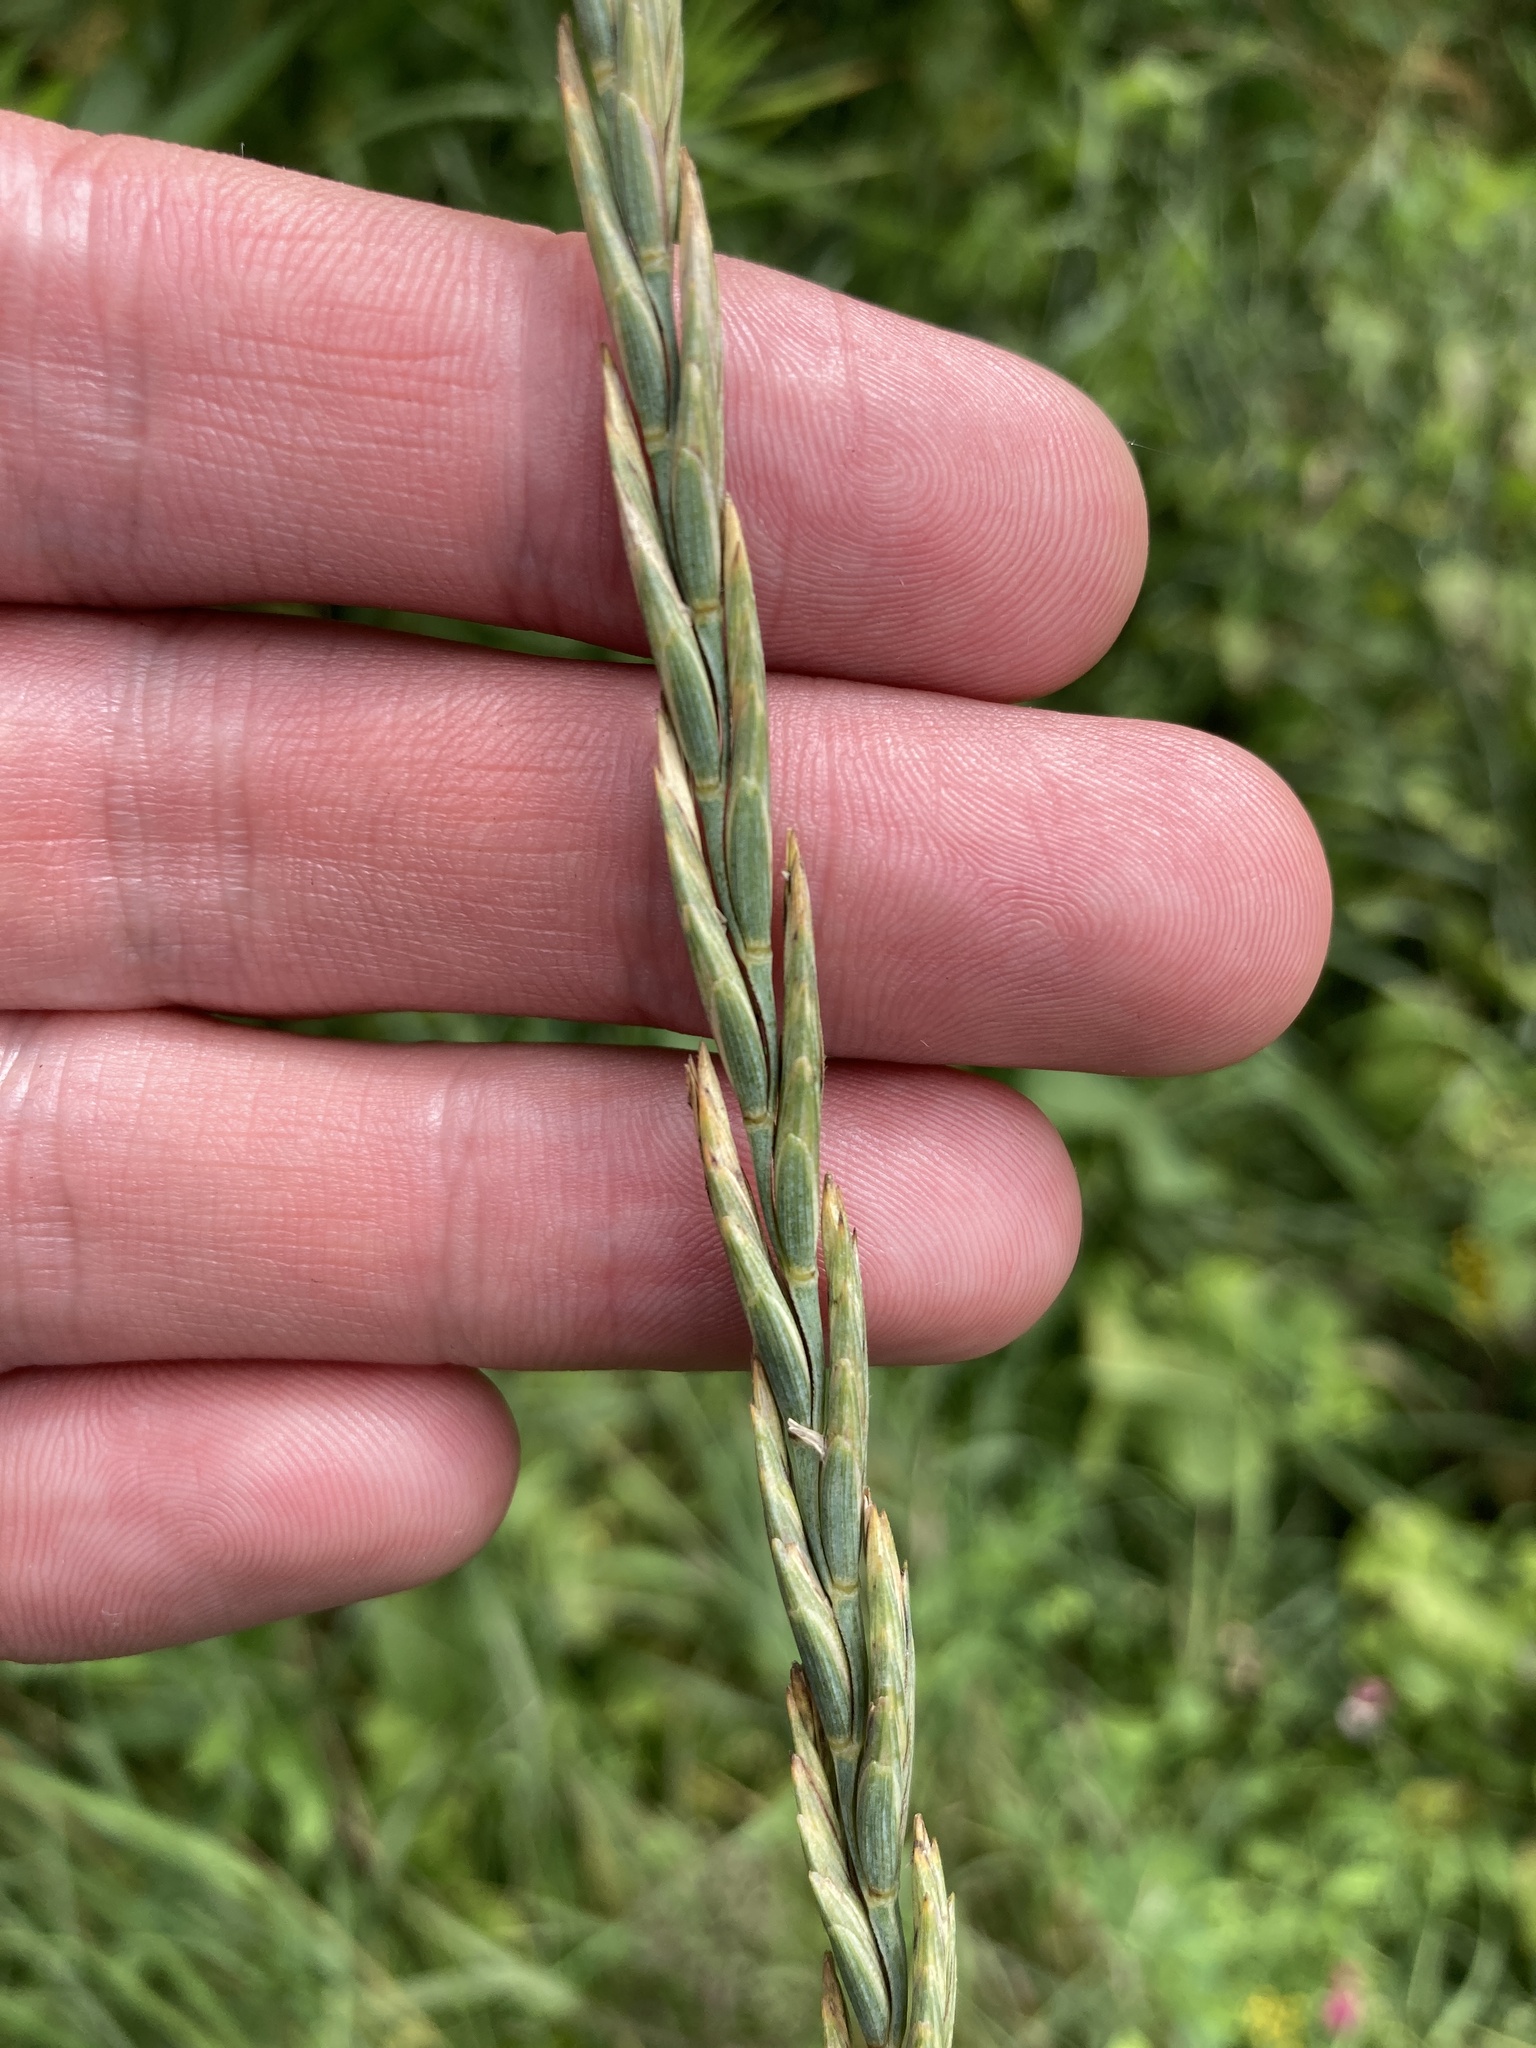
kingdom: Plantae
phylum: Tracheophyta
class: Liliopsida
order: Poales
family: Poaceae
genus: Elymus
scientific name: Elymus repens
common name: Quackgrass
